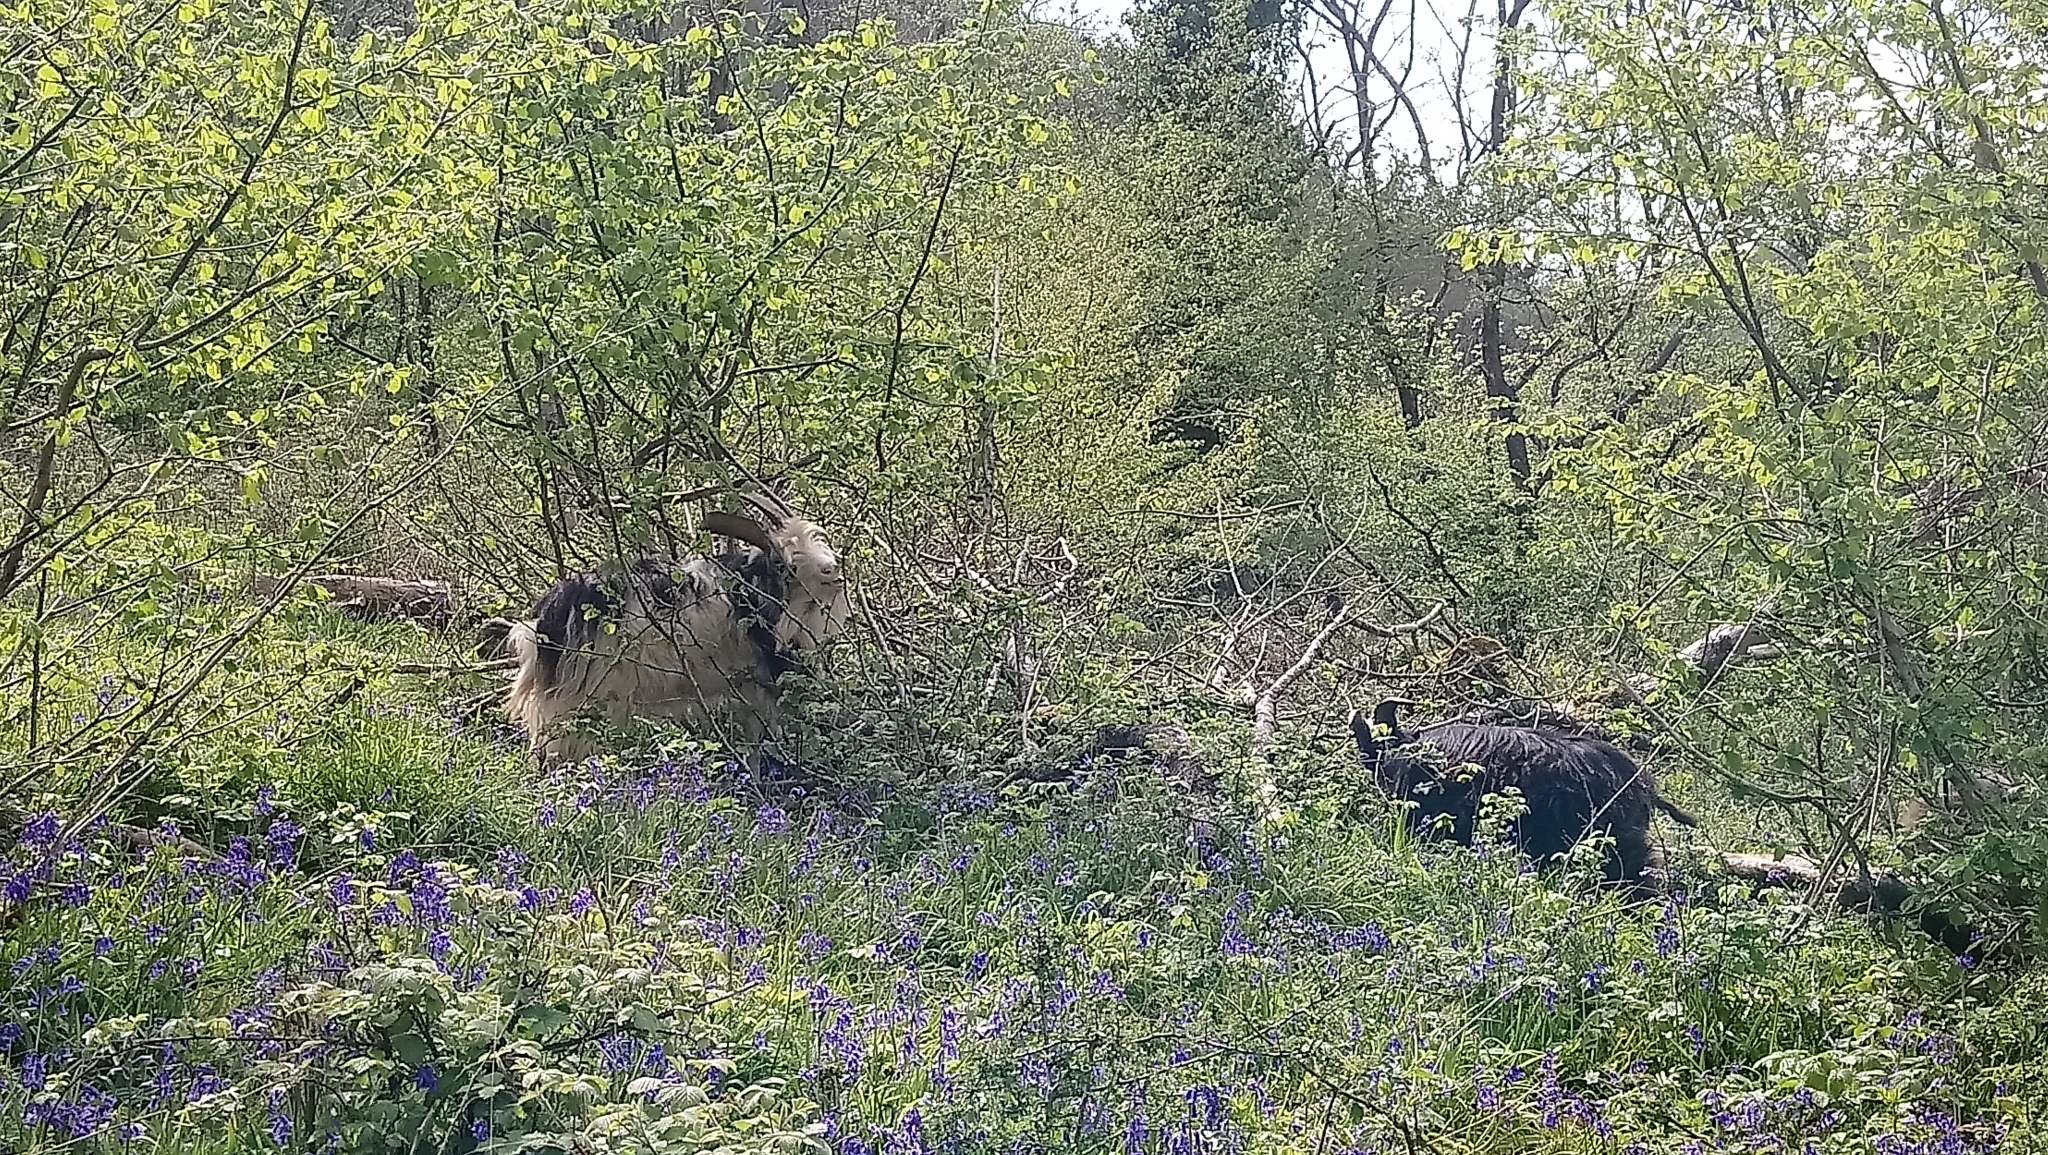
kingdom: Animalia
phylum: Chordata
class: Mammalia
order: Artiodactyla
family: Bovidae
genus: Capra
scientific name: Capra hircus
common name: Domestic goat
